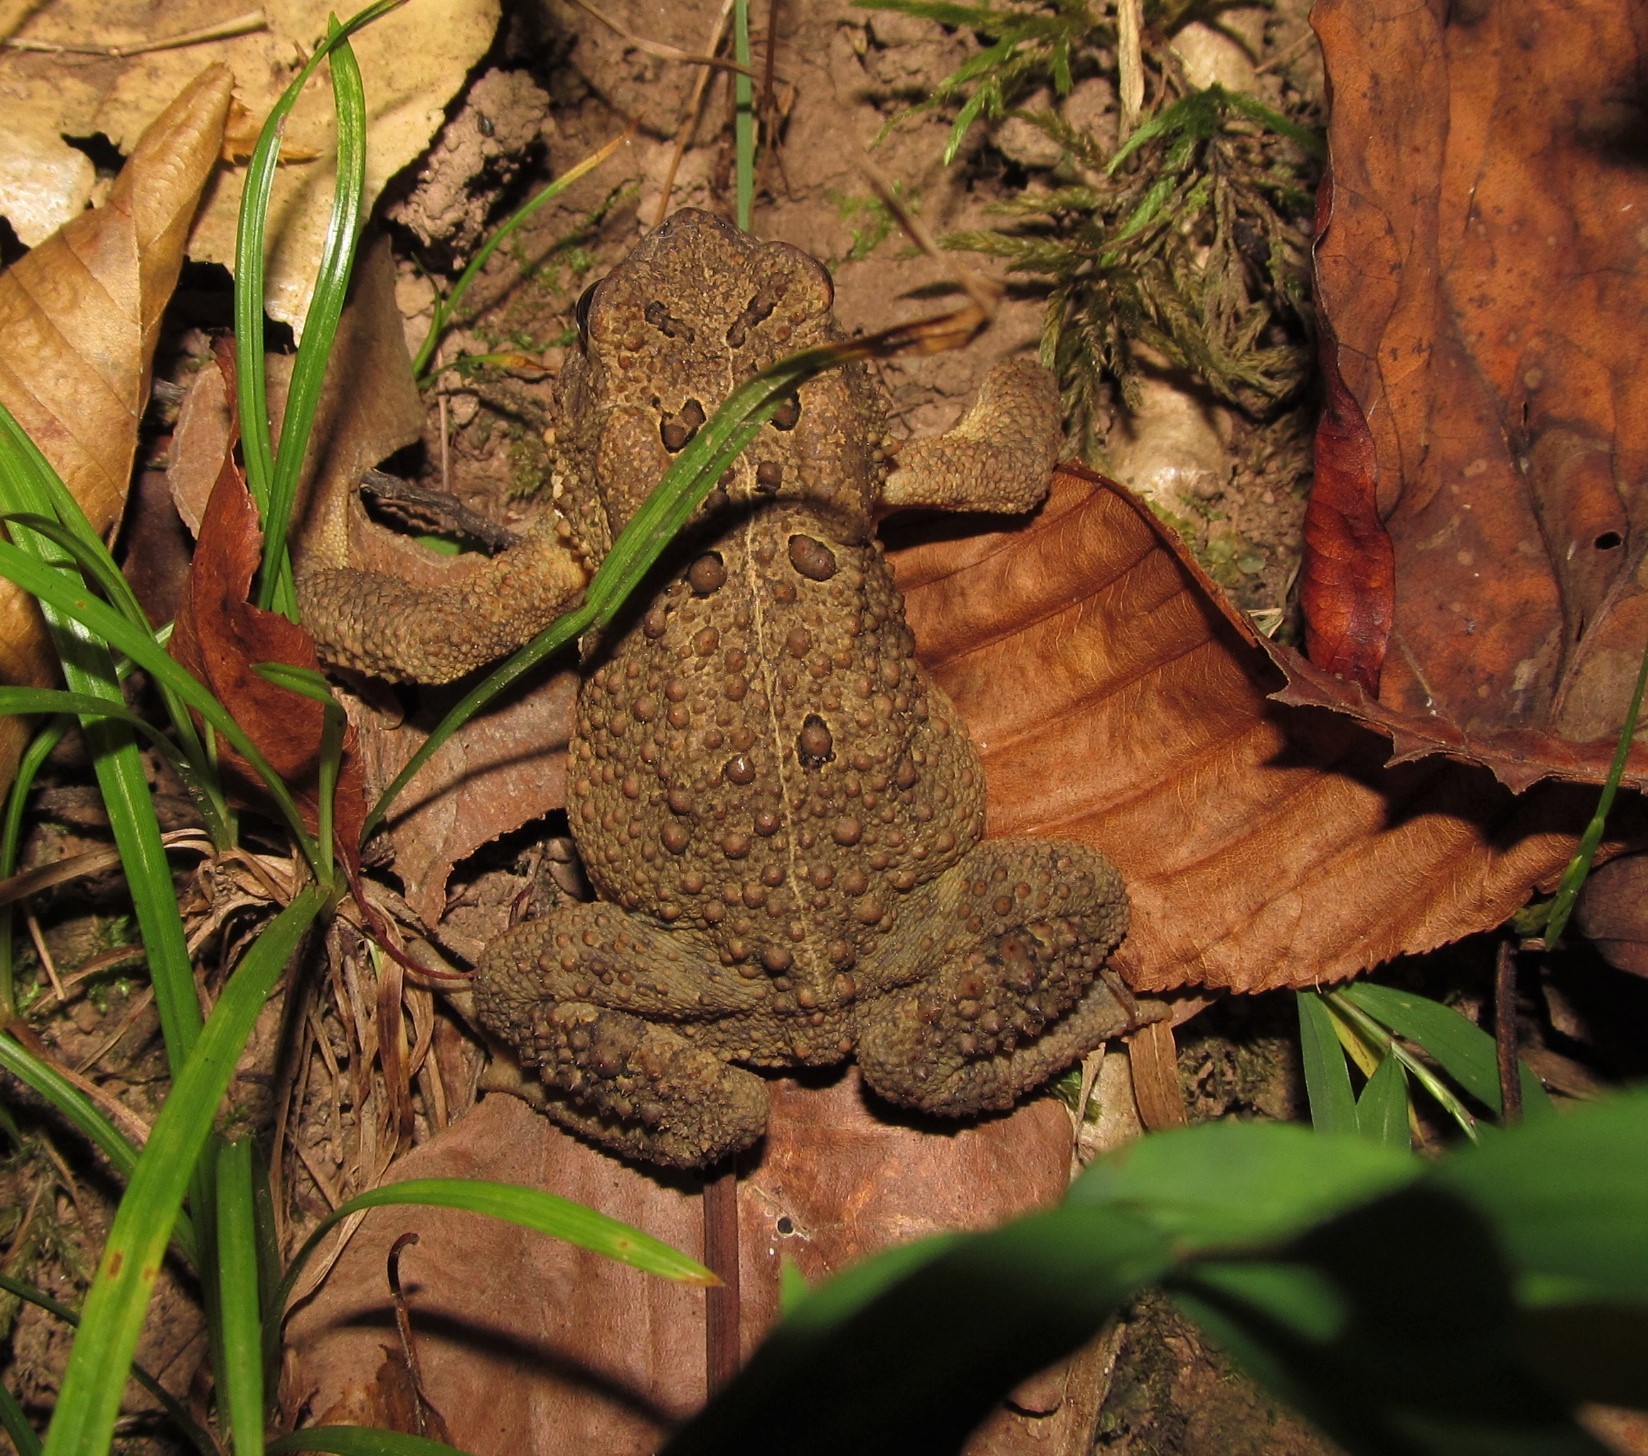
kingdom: Animalia
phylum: Chordata
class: Amphibia
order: Anura
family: Bufonidae
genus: Anaxyrus
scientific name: Anaxyrus americanus
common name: American toad
